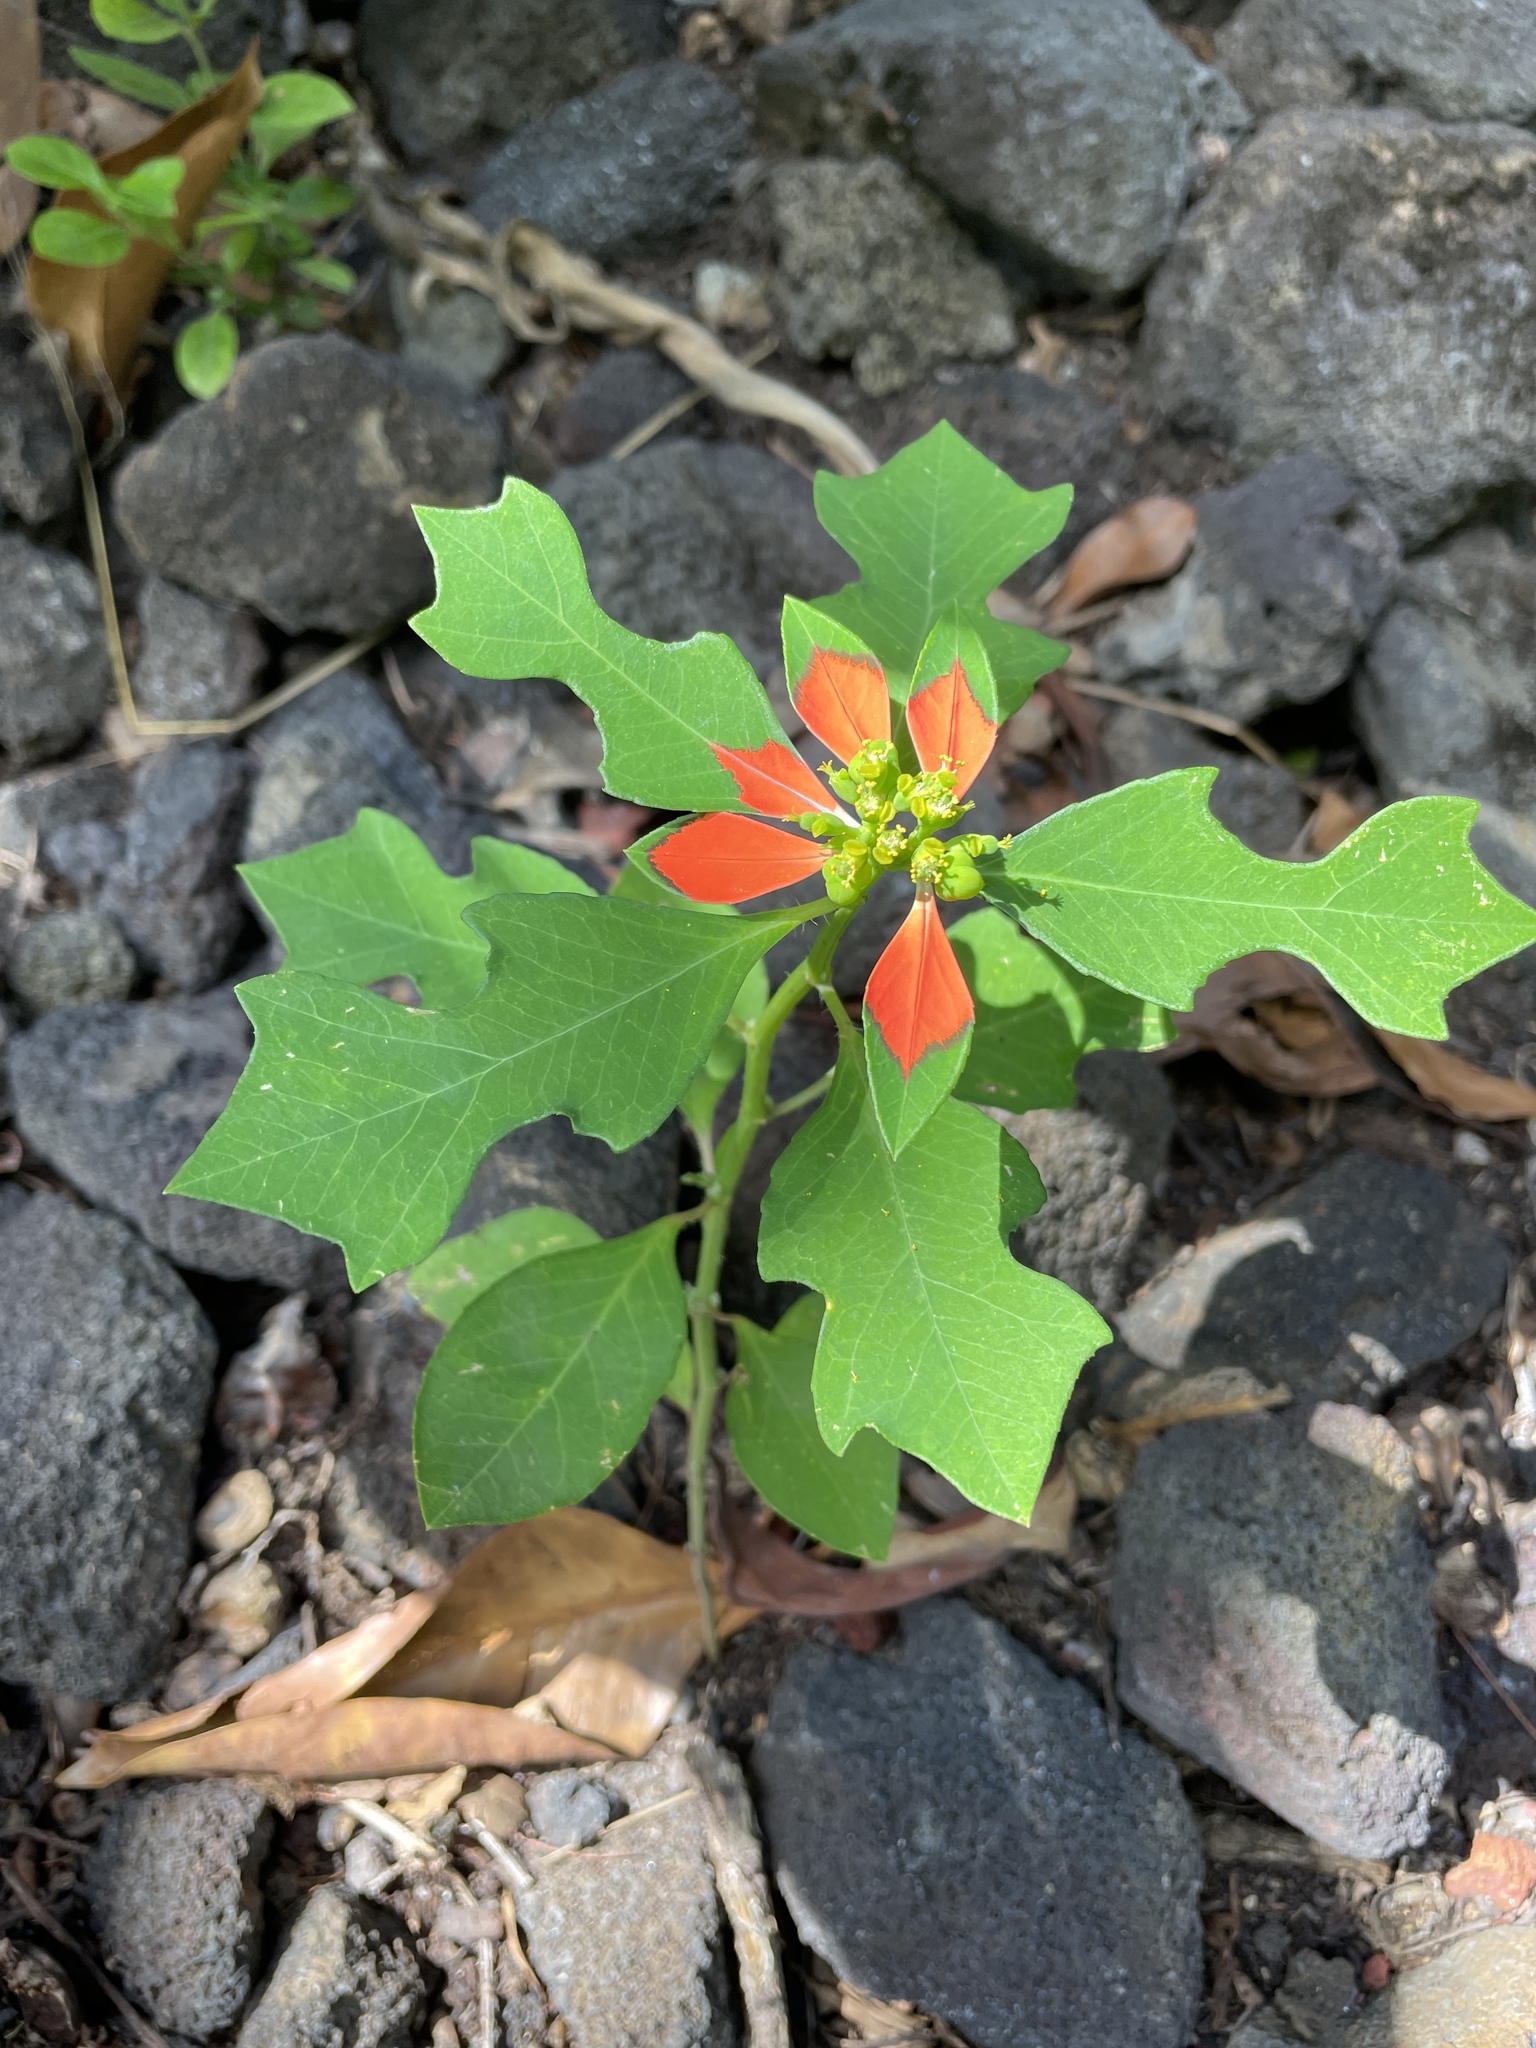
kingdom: Plantae
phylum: Tracheophyta
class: Magnoliopsida
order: Malpighiales
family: Euphorbiaceae
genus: Euphorbia
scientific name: Euphorbia heterophylla
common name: Mexican fireplant
